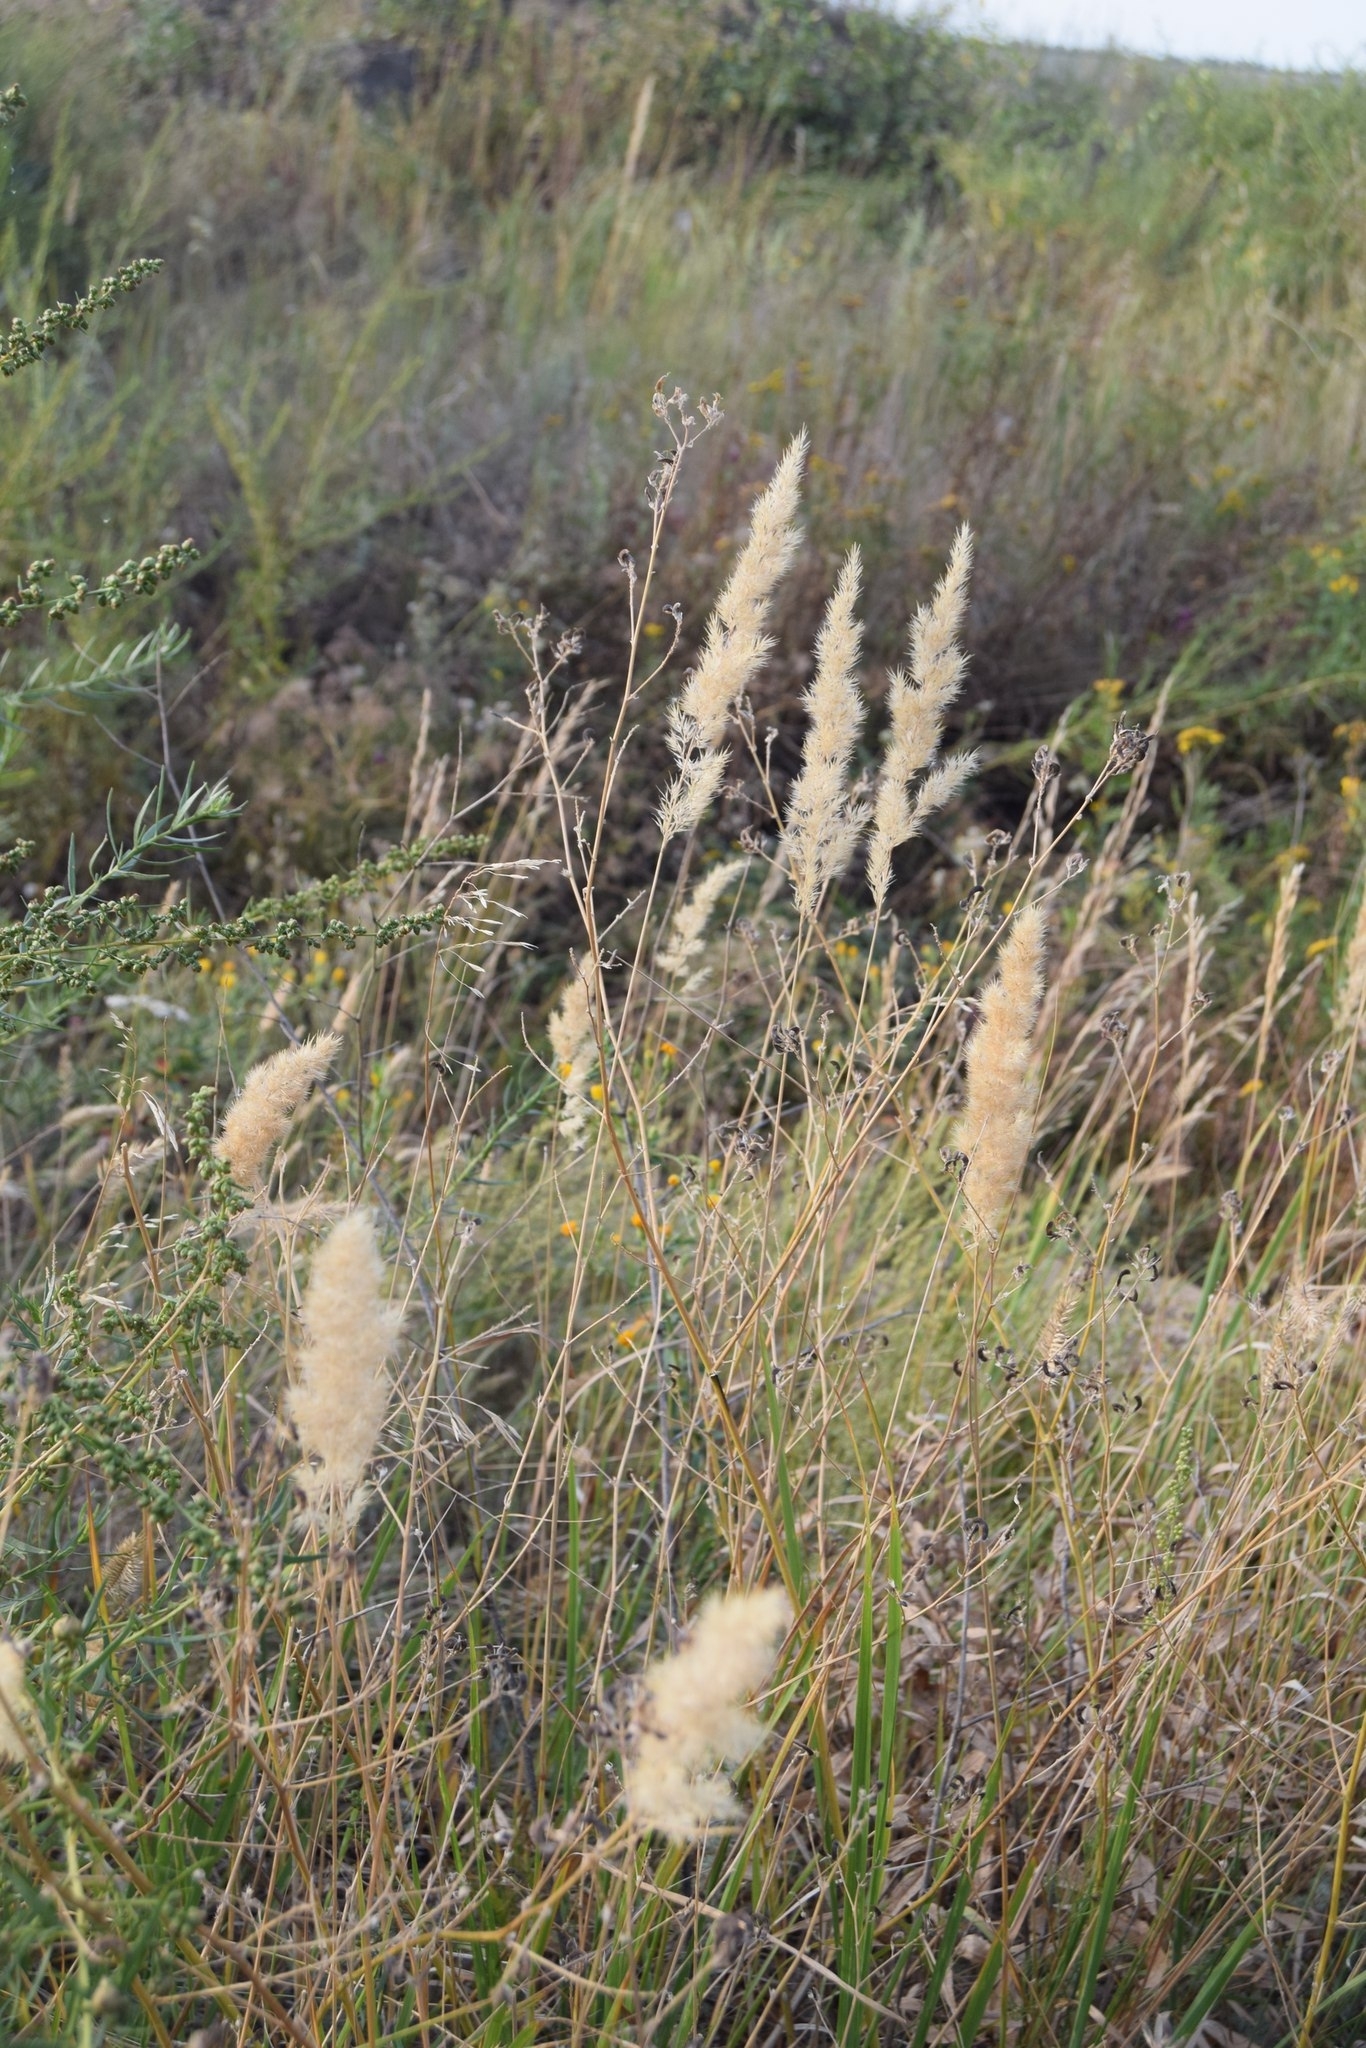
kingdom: Plantae
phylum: Tracheophyta
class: Liliopsida
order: Poales
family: Poaceae
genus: Calamagrostis
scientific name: Calamagrostis epigejos
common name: Wood small-reed
